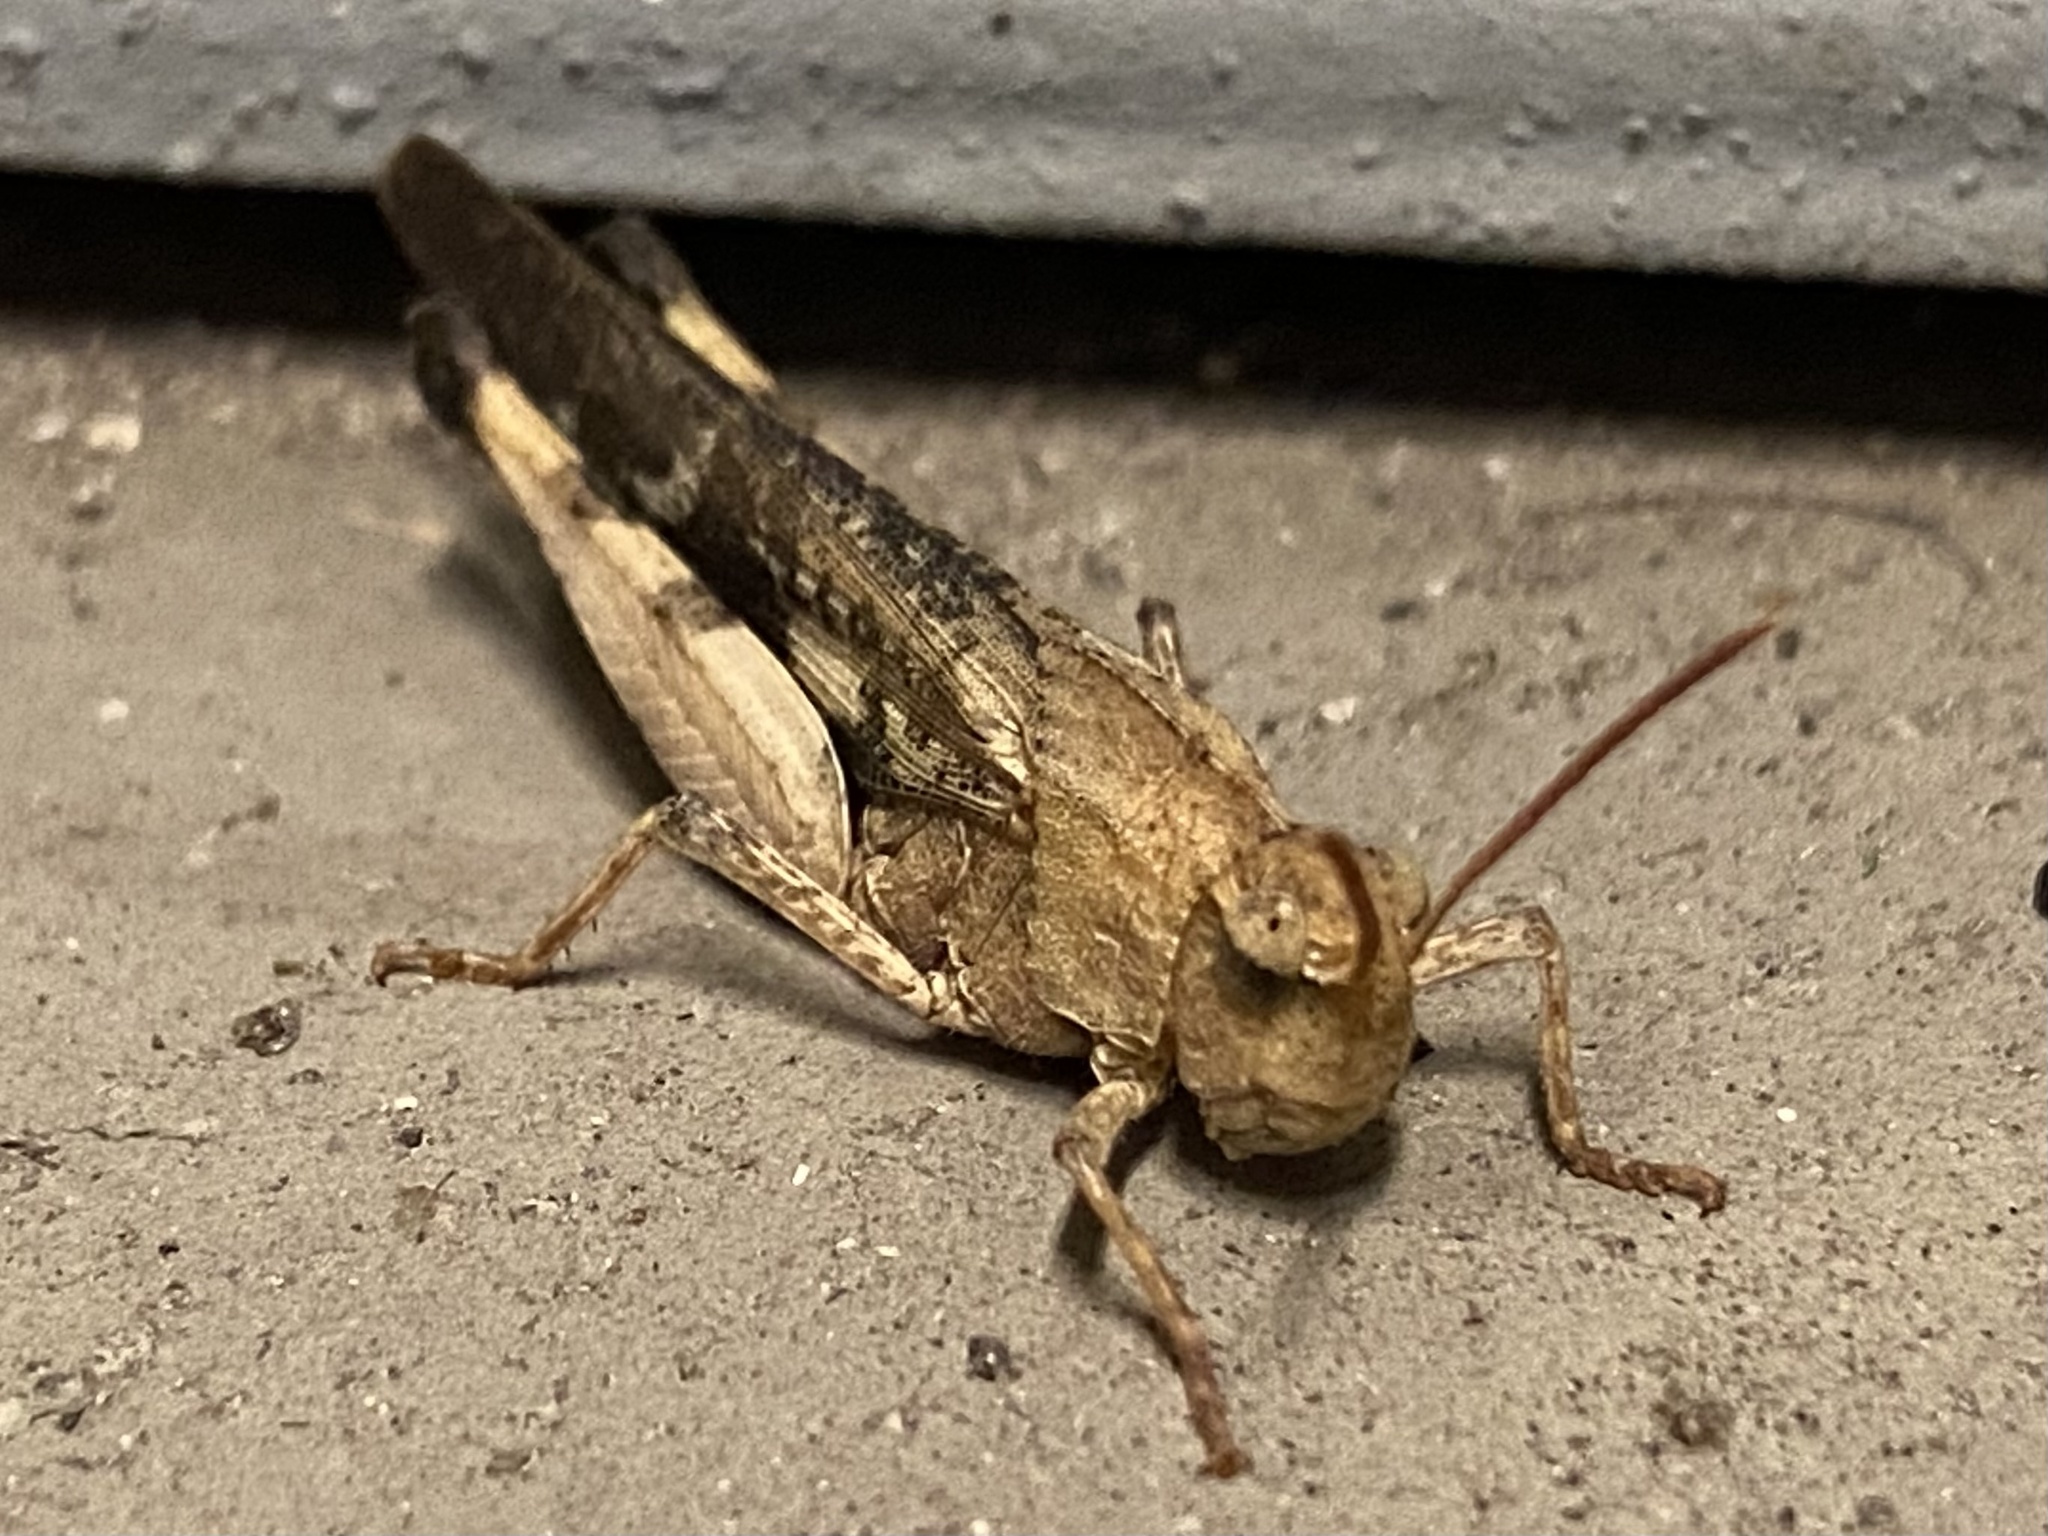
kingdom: Animalia
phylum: Arthropoda
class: Insecta
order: Orthoptera
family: Acrididae
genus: Chortophaga
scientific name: Chortophaga viridifasciata
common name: Green-striped grasshopper
